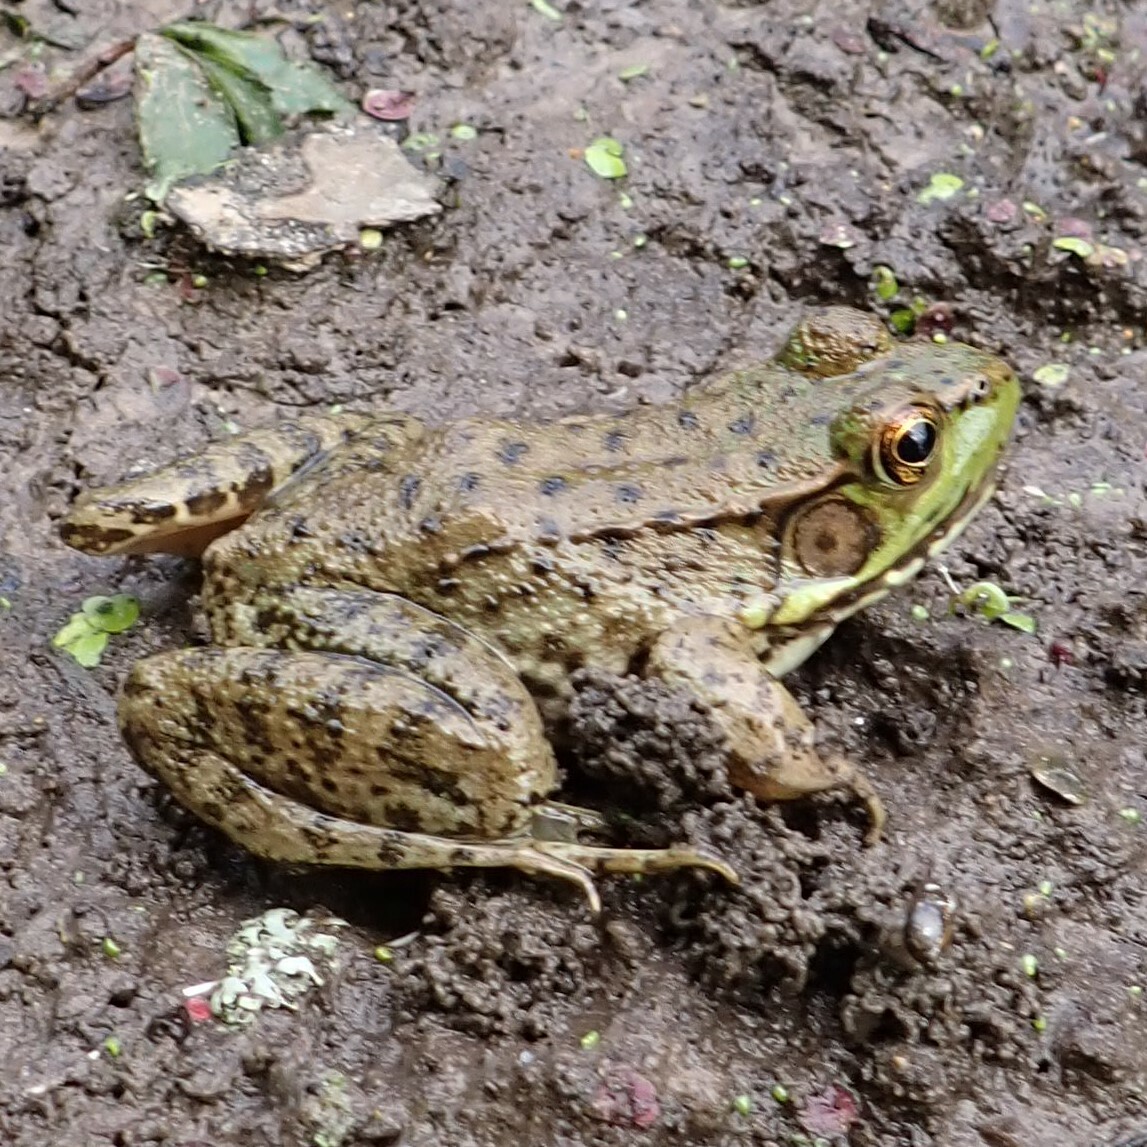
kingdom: Animalia
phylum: Chordata
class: Amphibia
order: Anura
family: Ranidae
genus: Lithobates
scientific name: Lithobates clamitans
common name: Green frog
